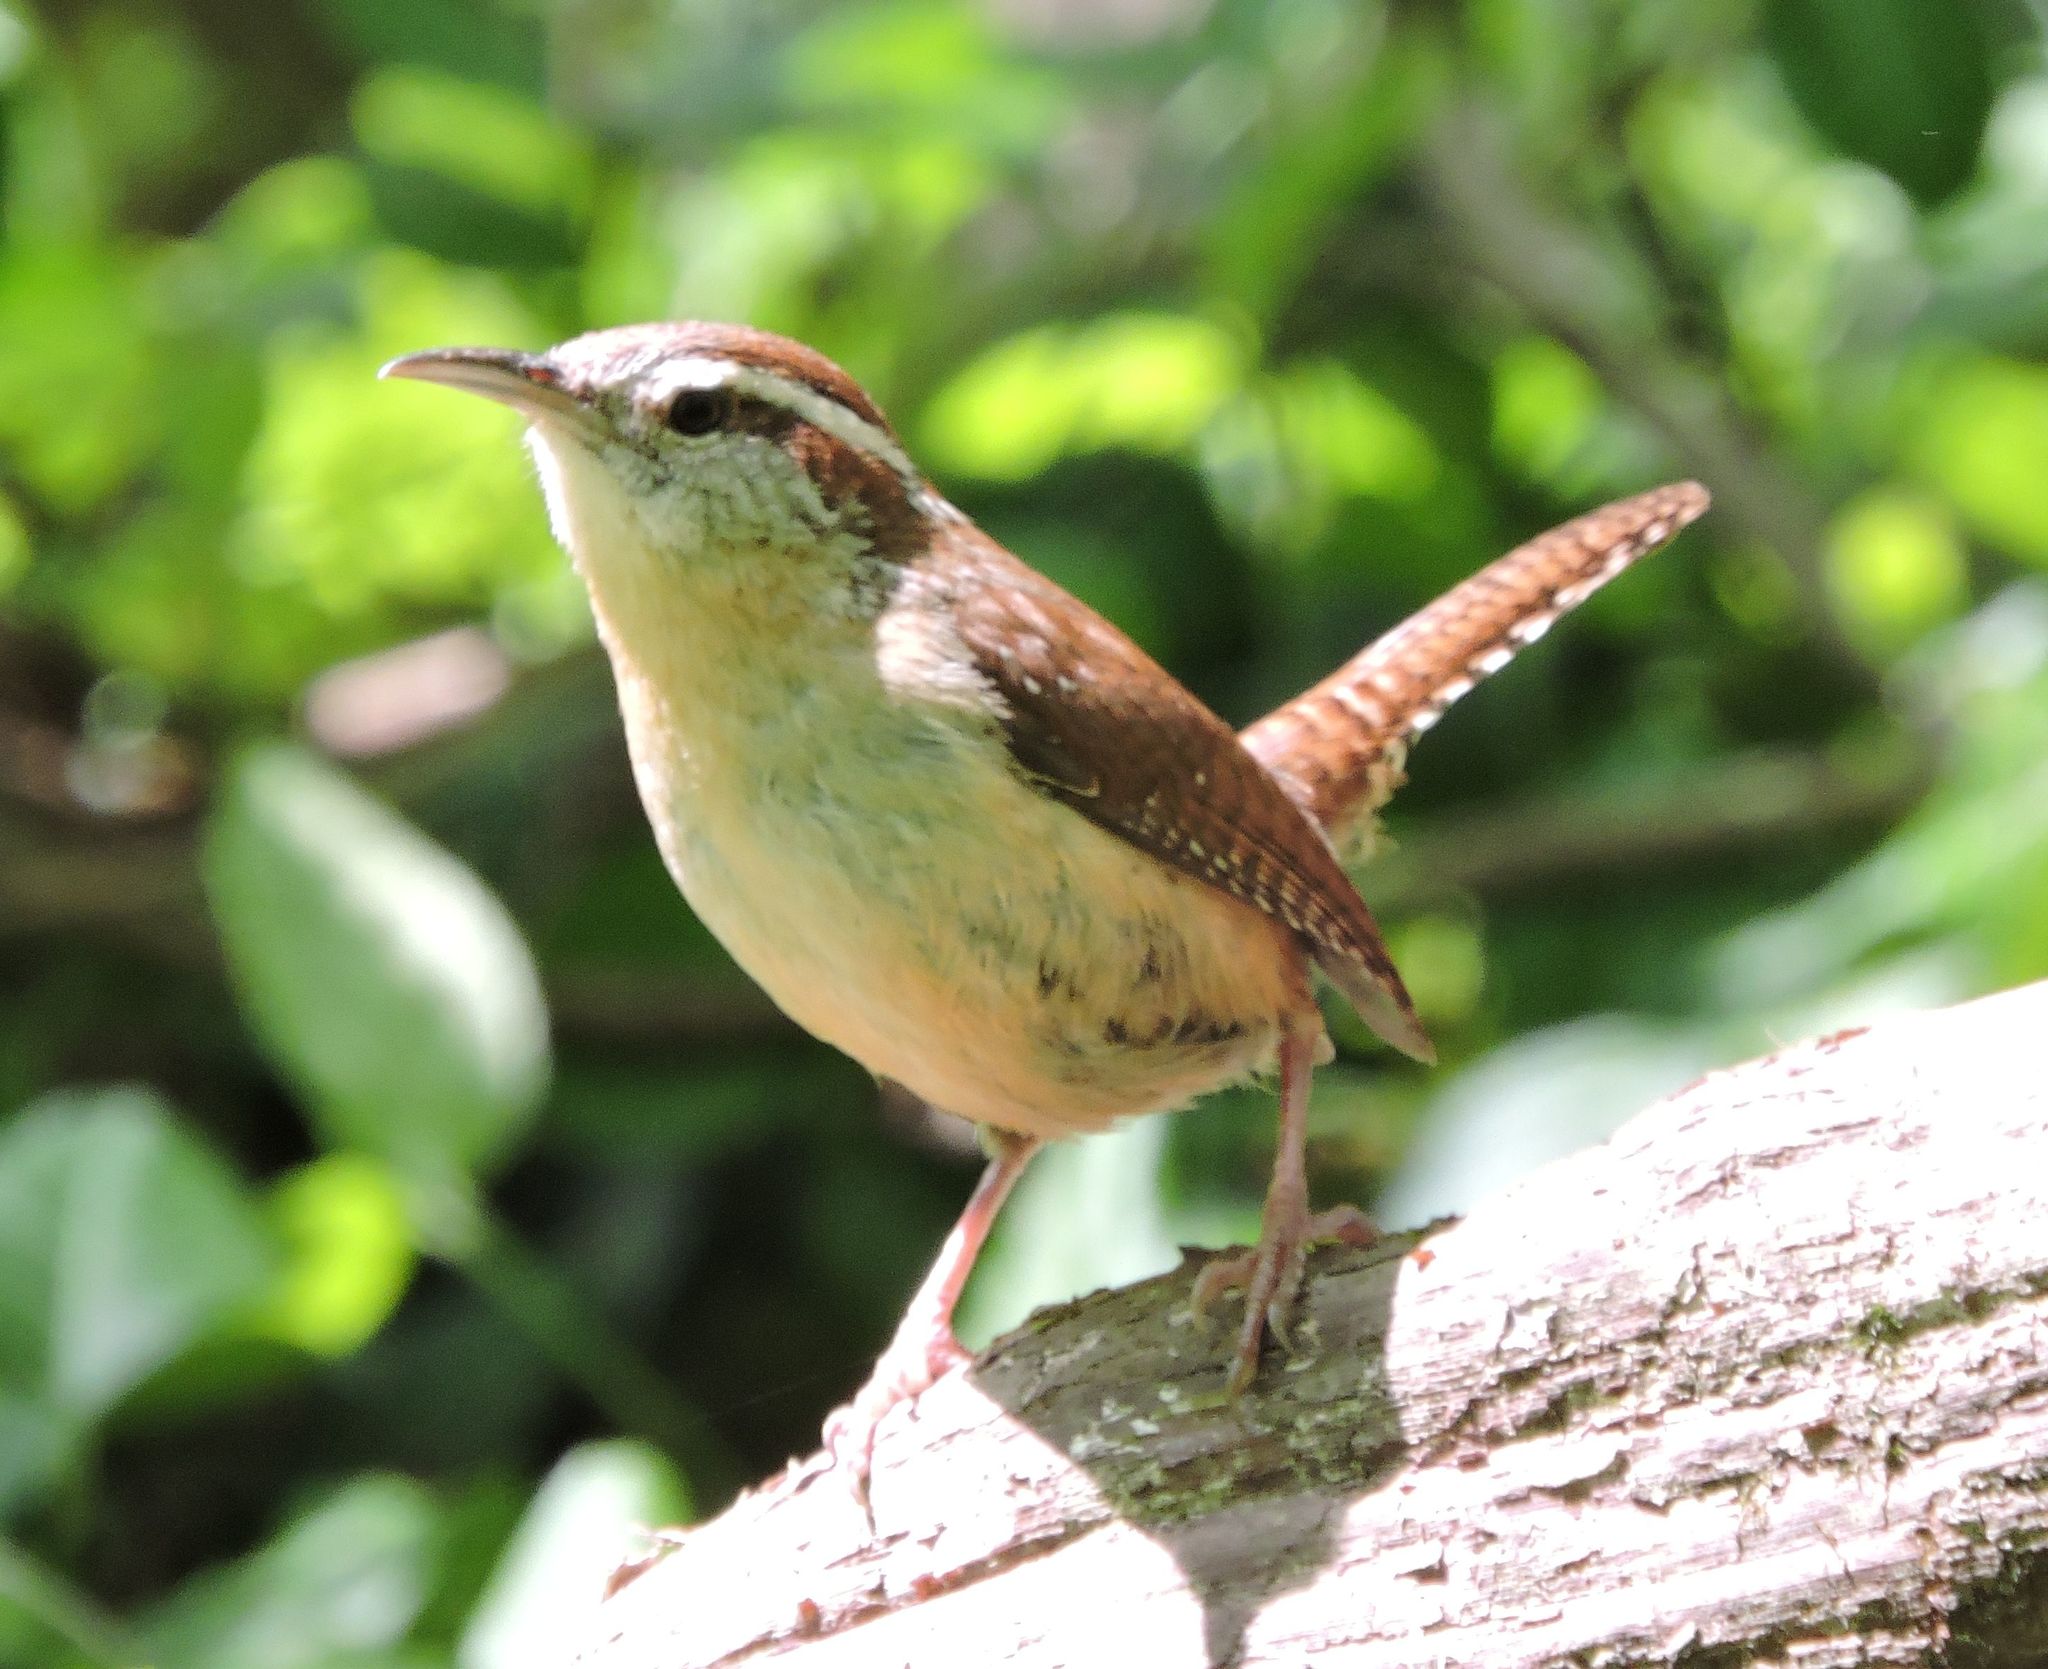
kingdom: Animalia
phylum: Chordata
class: Aves
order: Passeriformes
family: Troglodytidae
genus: Thryothorus
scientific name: Thryothorus ludovicianus
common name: Carolina wren
